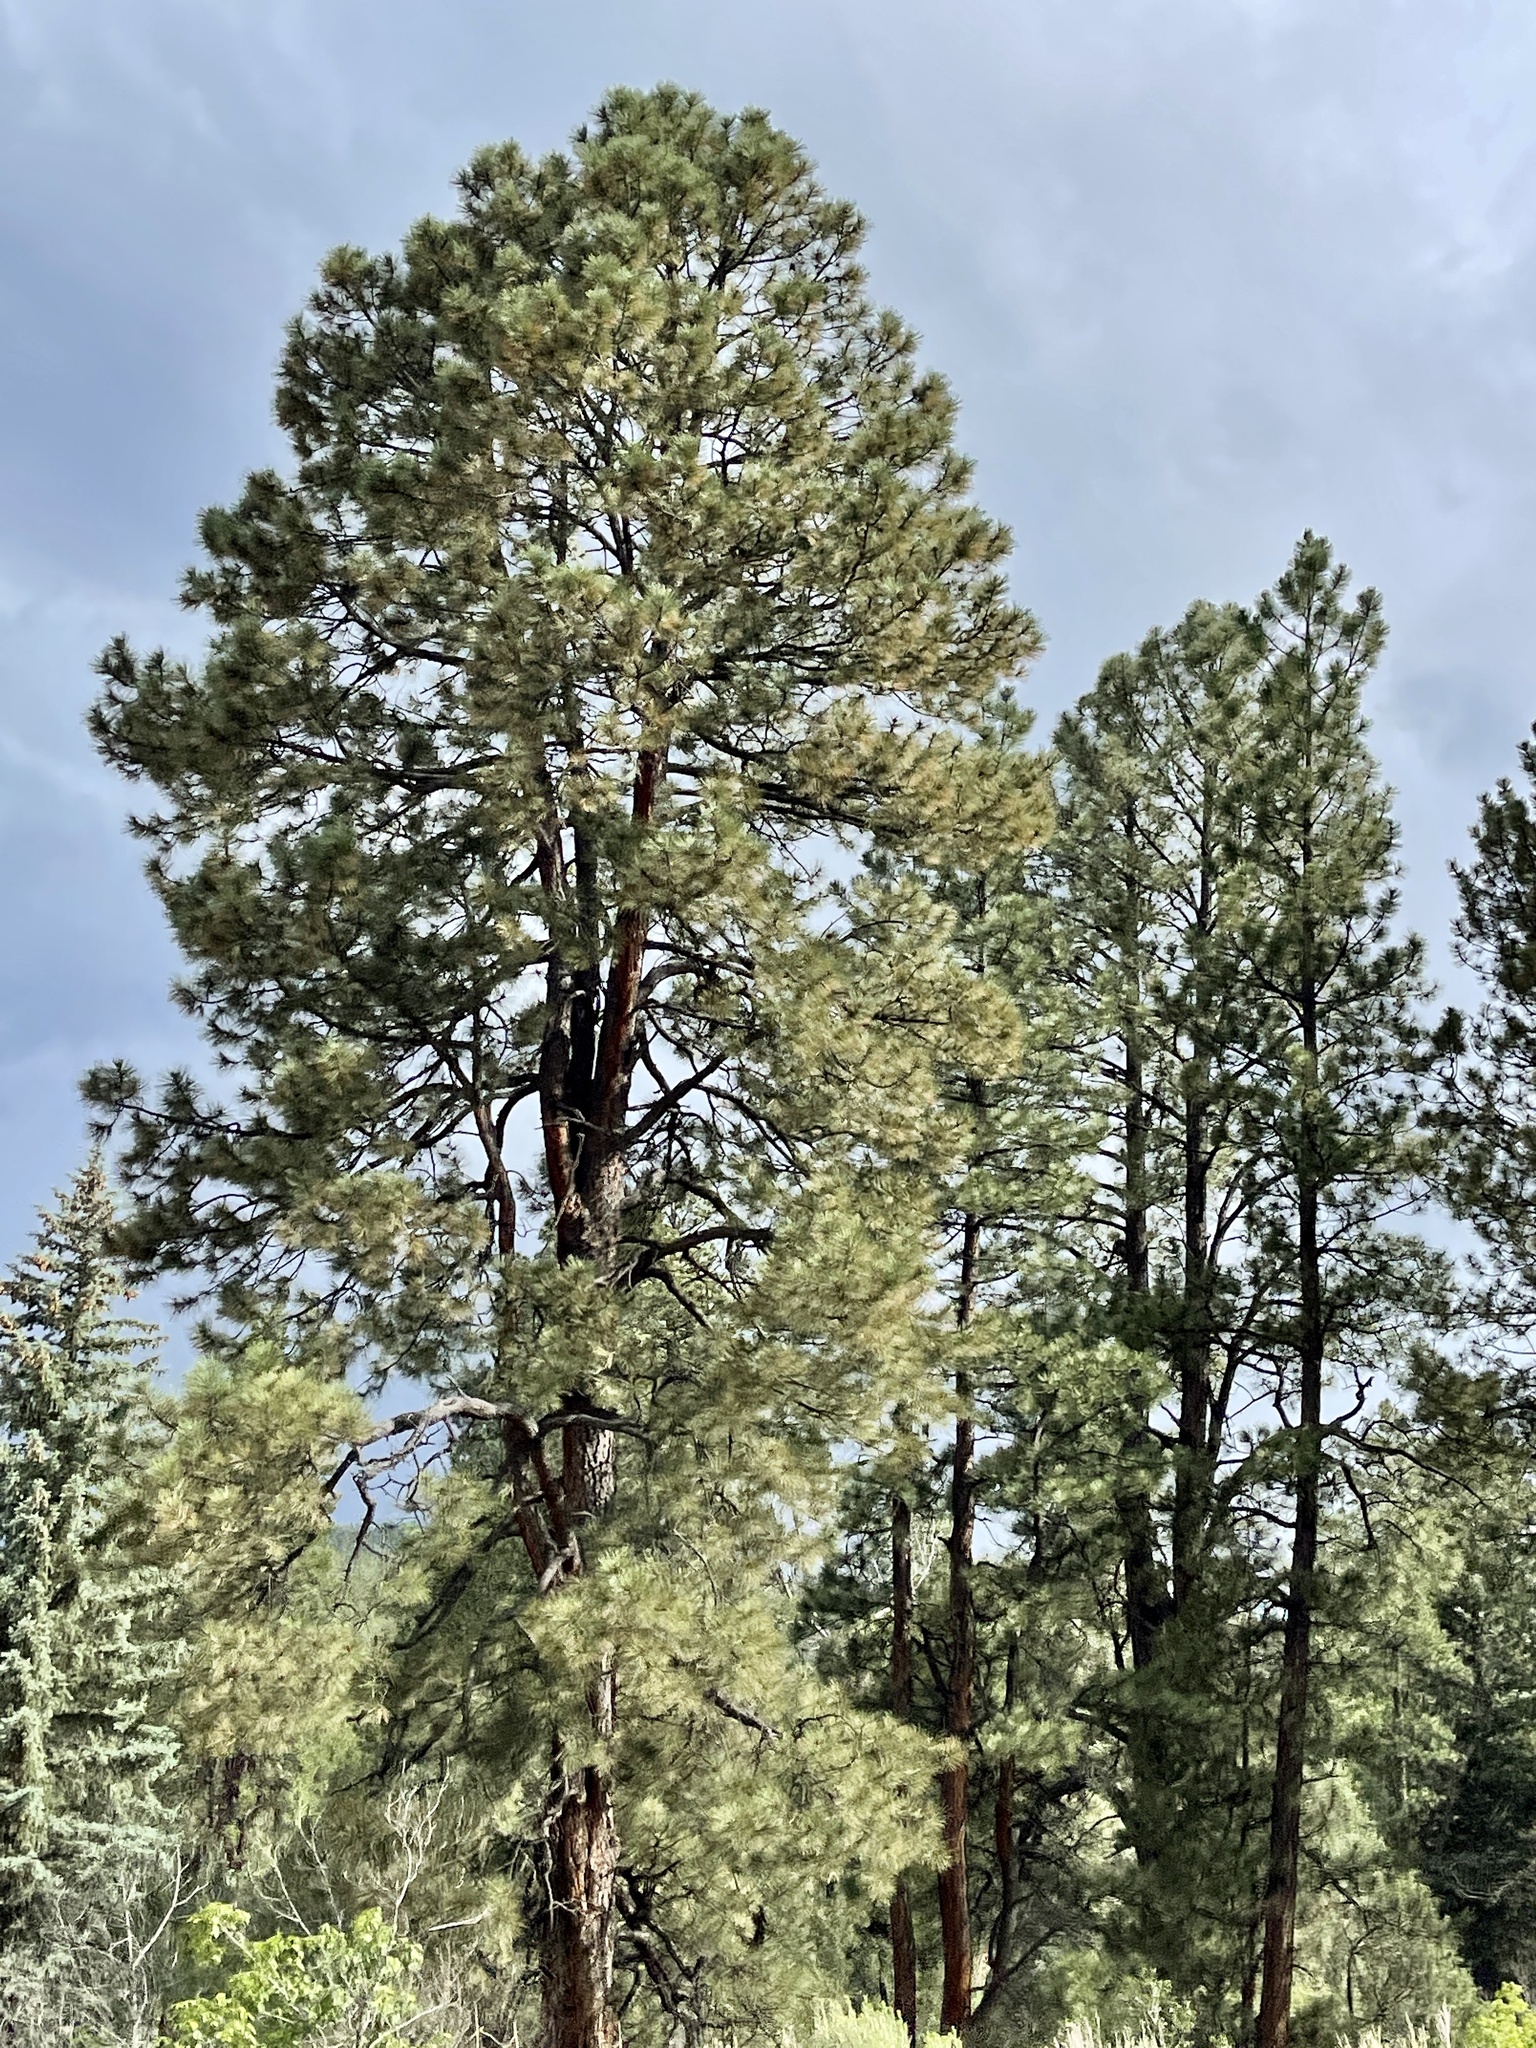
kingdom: Plantae
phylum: Tracheophyta
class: Pinopsida
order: Pinales
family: Pinaceae
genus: Pinus
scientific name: Pinus ponderosa
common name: Western yellow-pine
